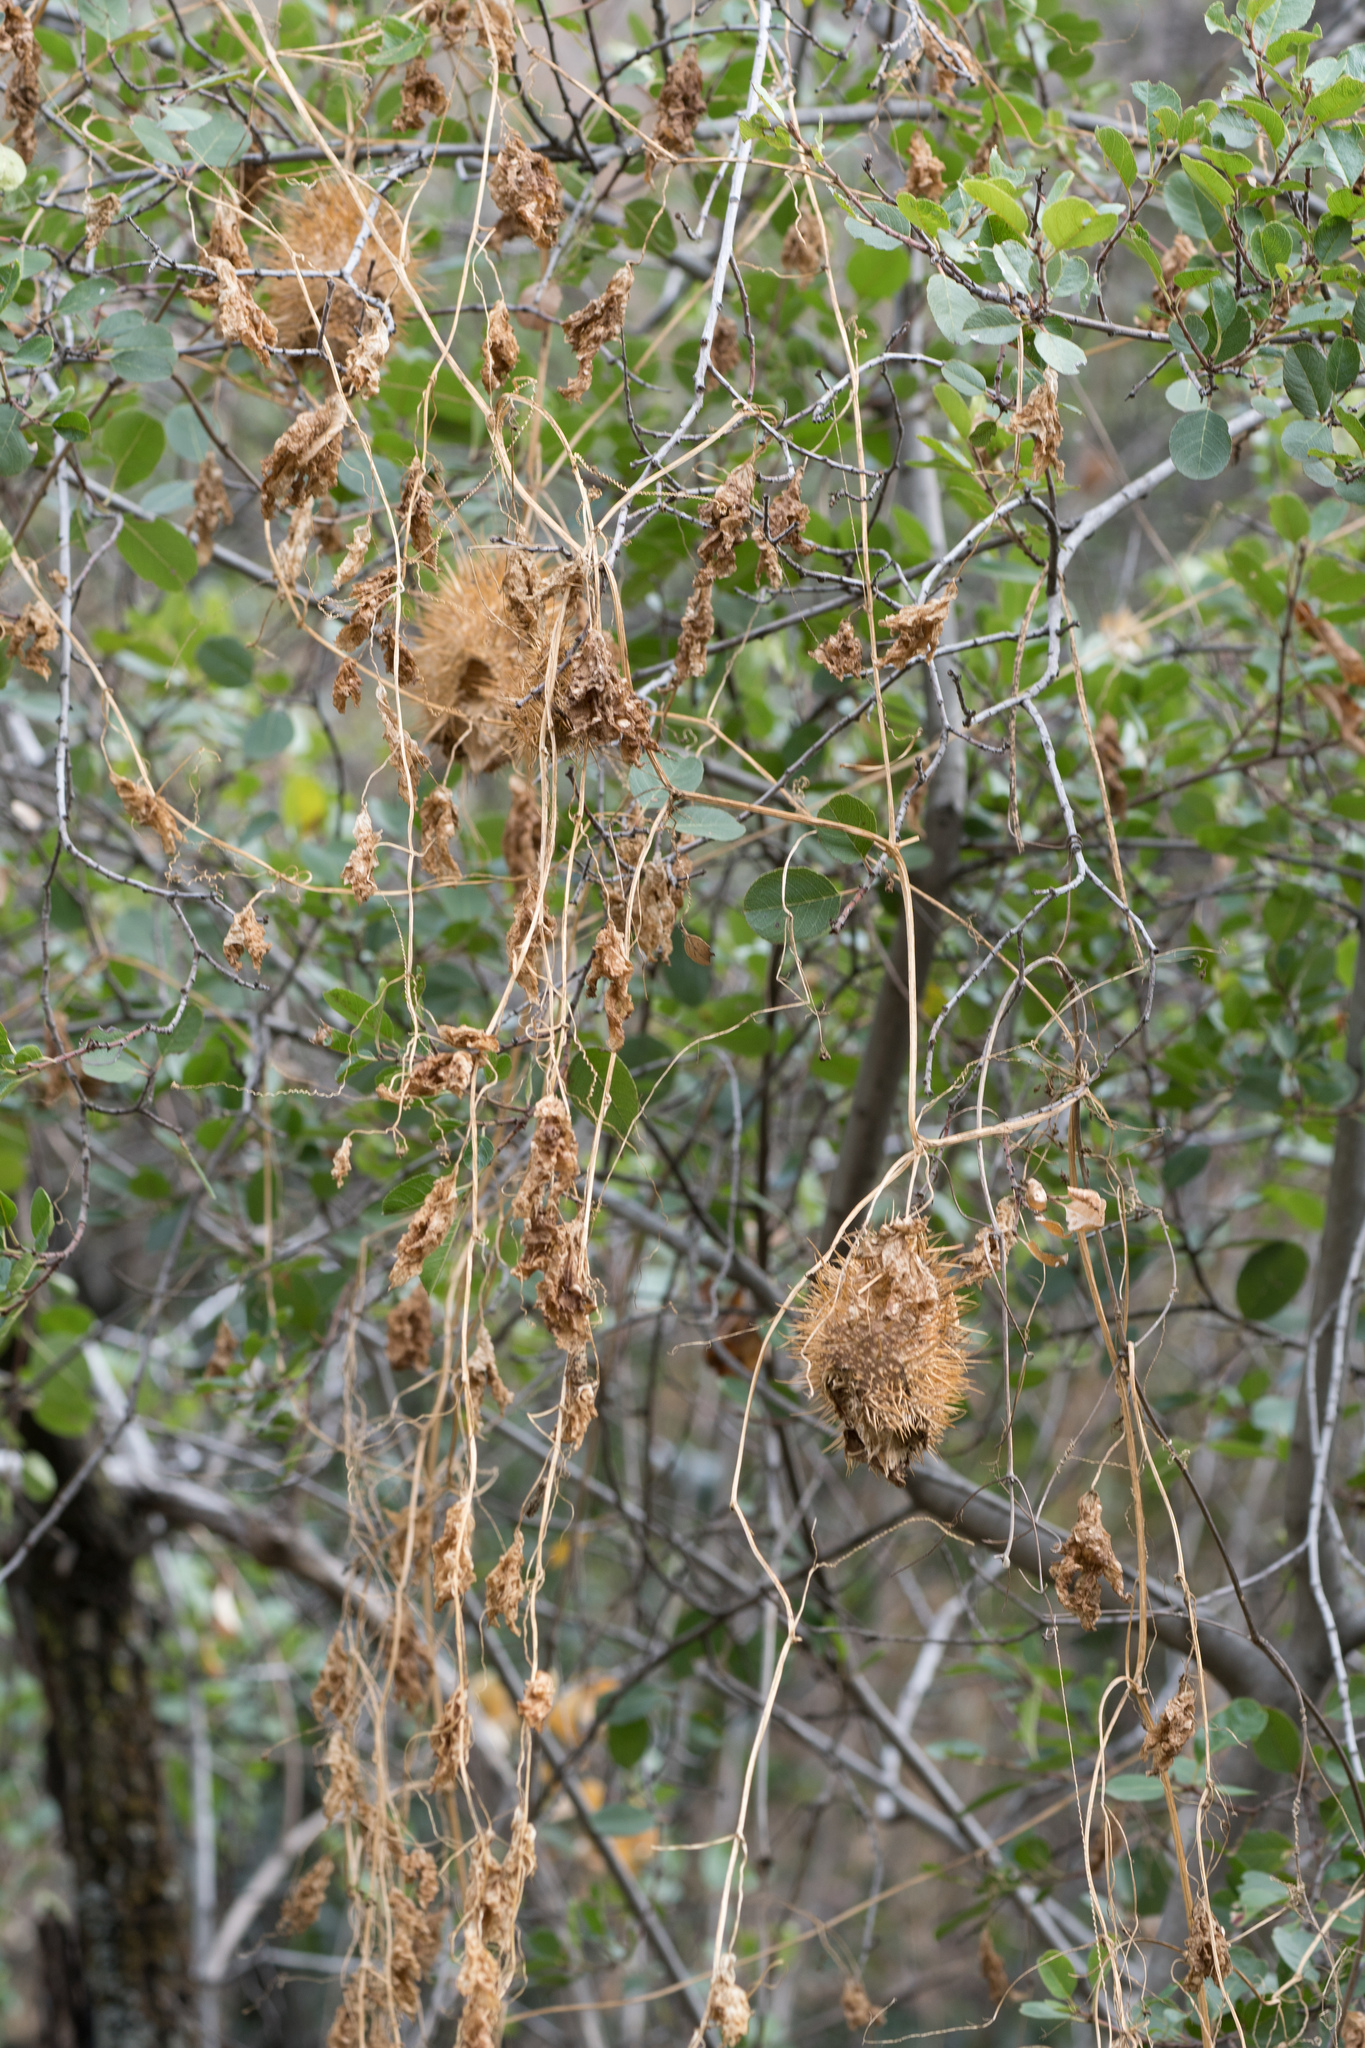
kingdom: Plantae
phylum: Tracheophyta
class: Magnoliopsida
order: Cucurbitales
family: Cucurbitaceae
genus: Marah
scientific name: Marah macrocarpa
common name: Cucamonga manroot
